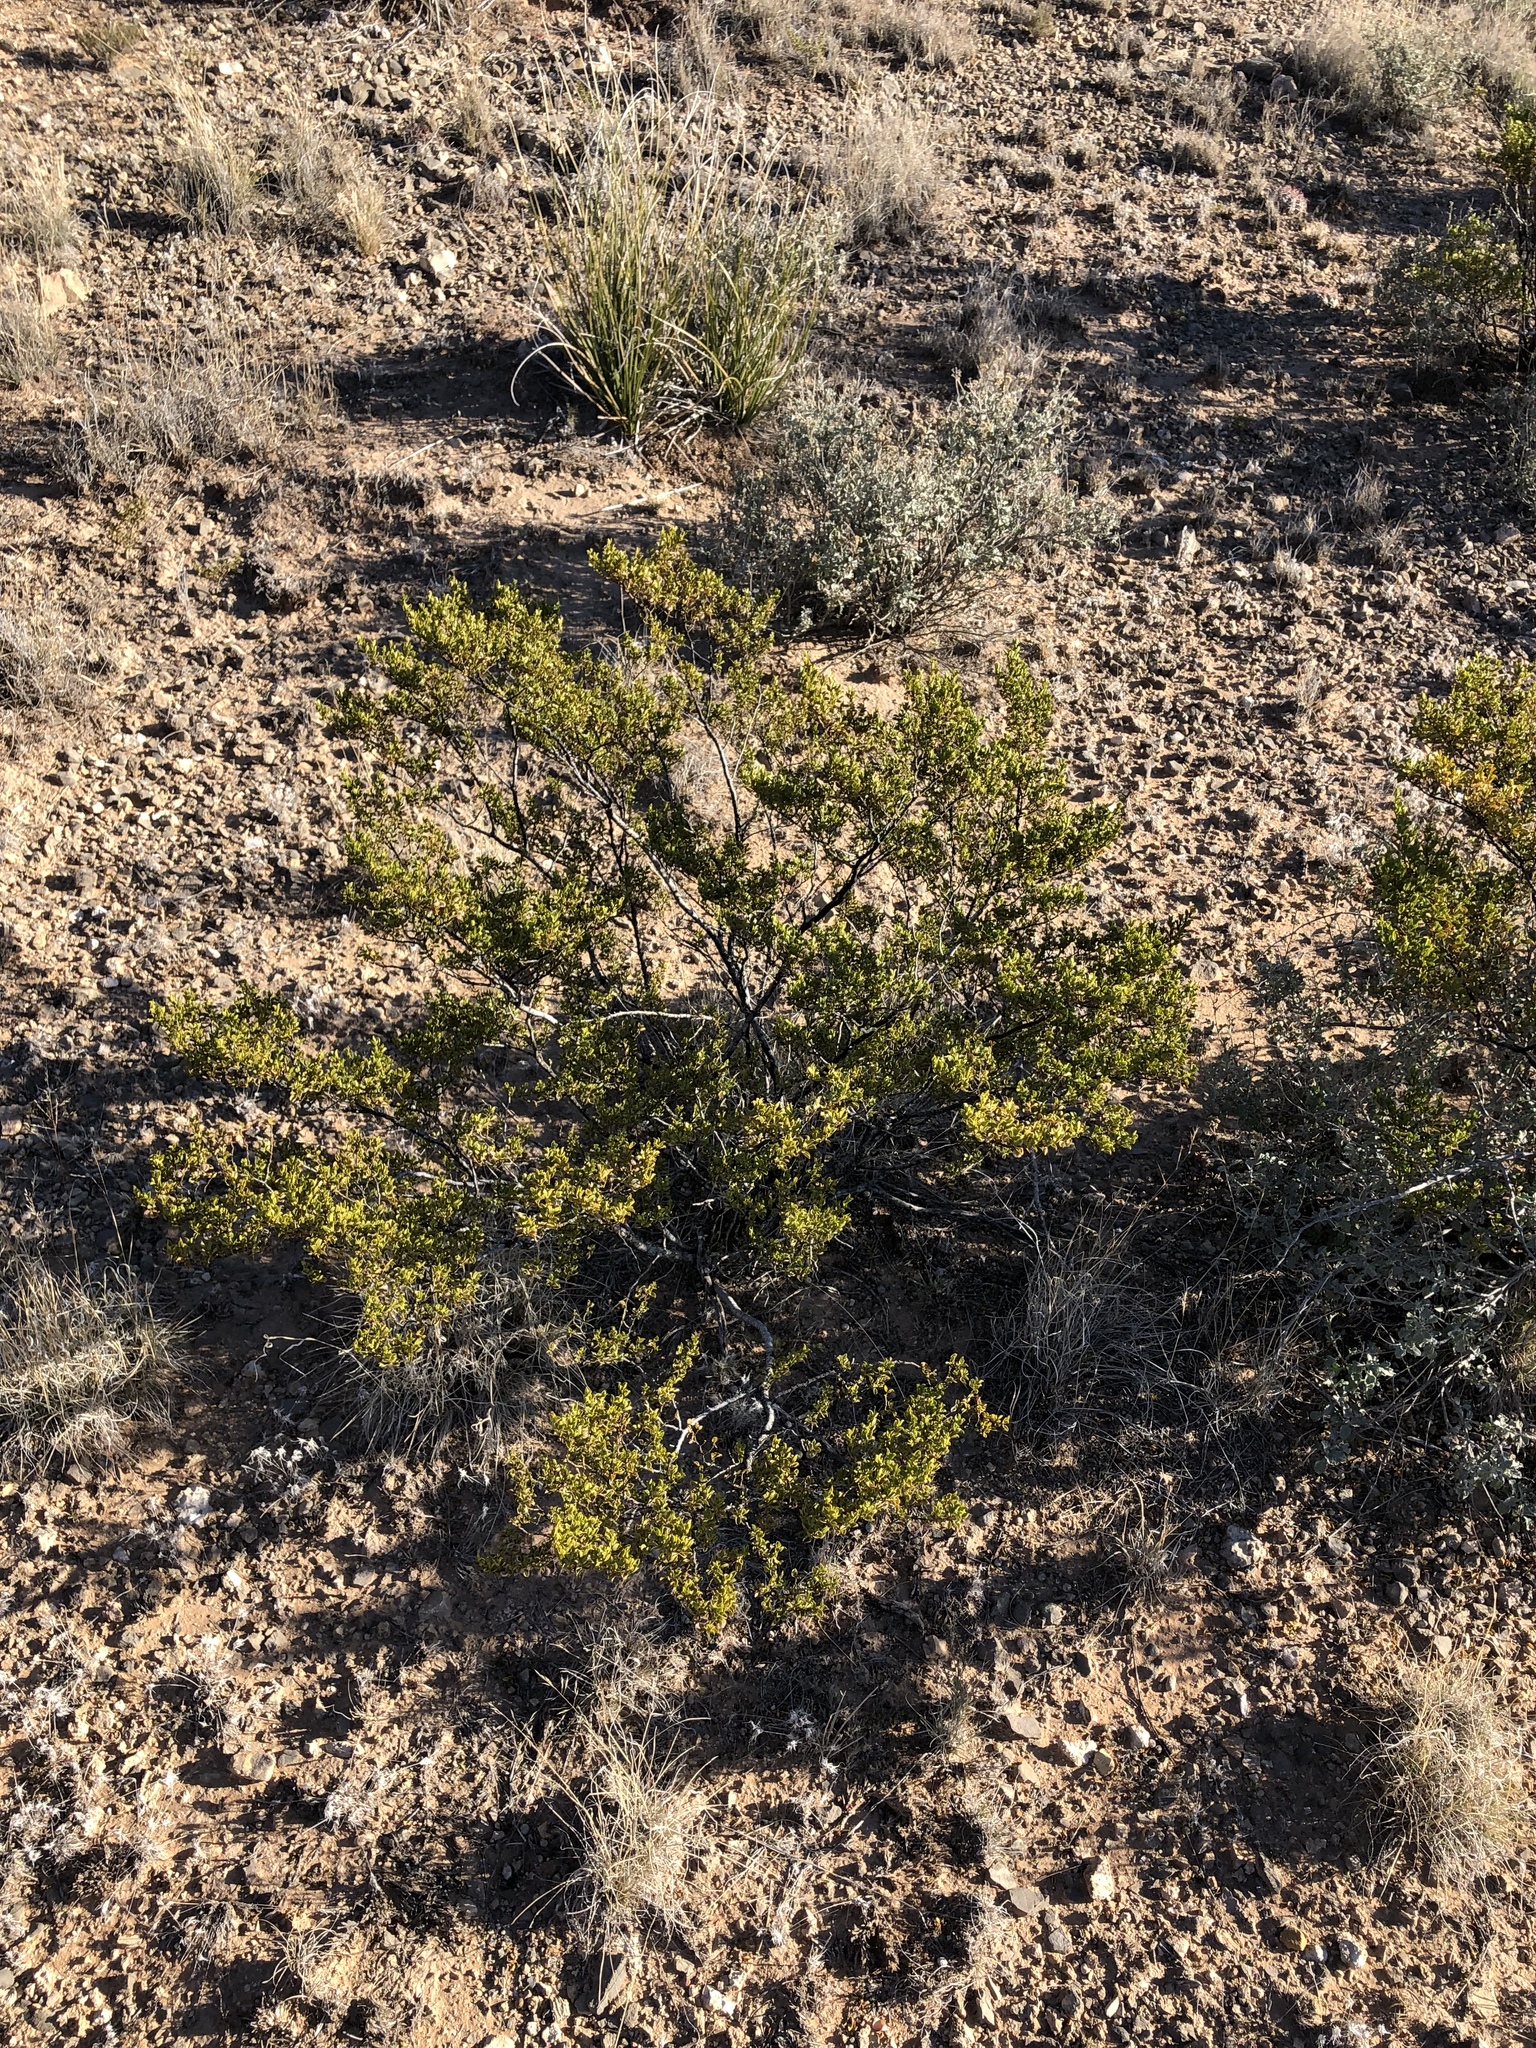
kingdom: Plantae
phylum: Tracheophyta
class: Magnoliopsida
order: Zygophyllales
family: Zygophyllaceae
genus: Larrea
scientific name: Larrea tridentata
